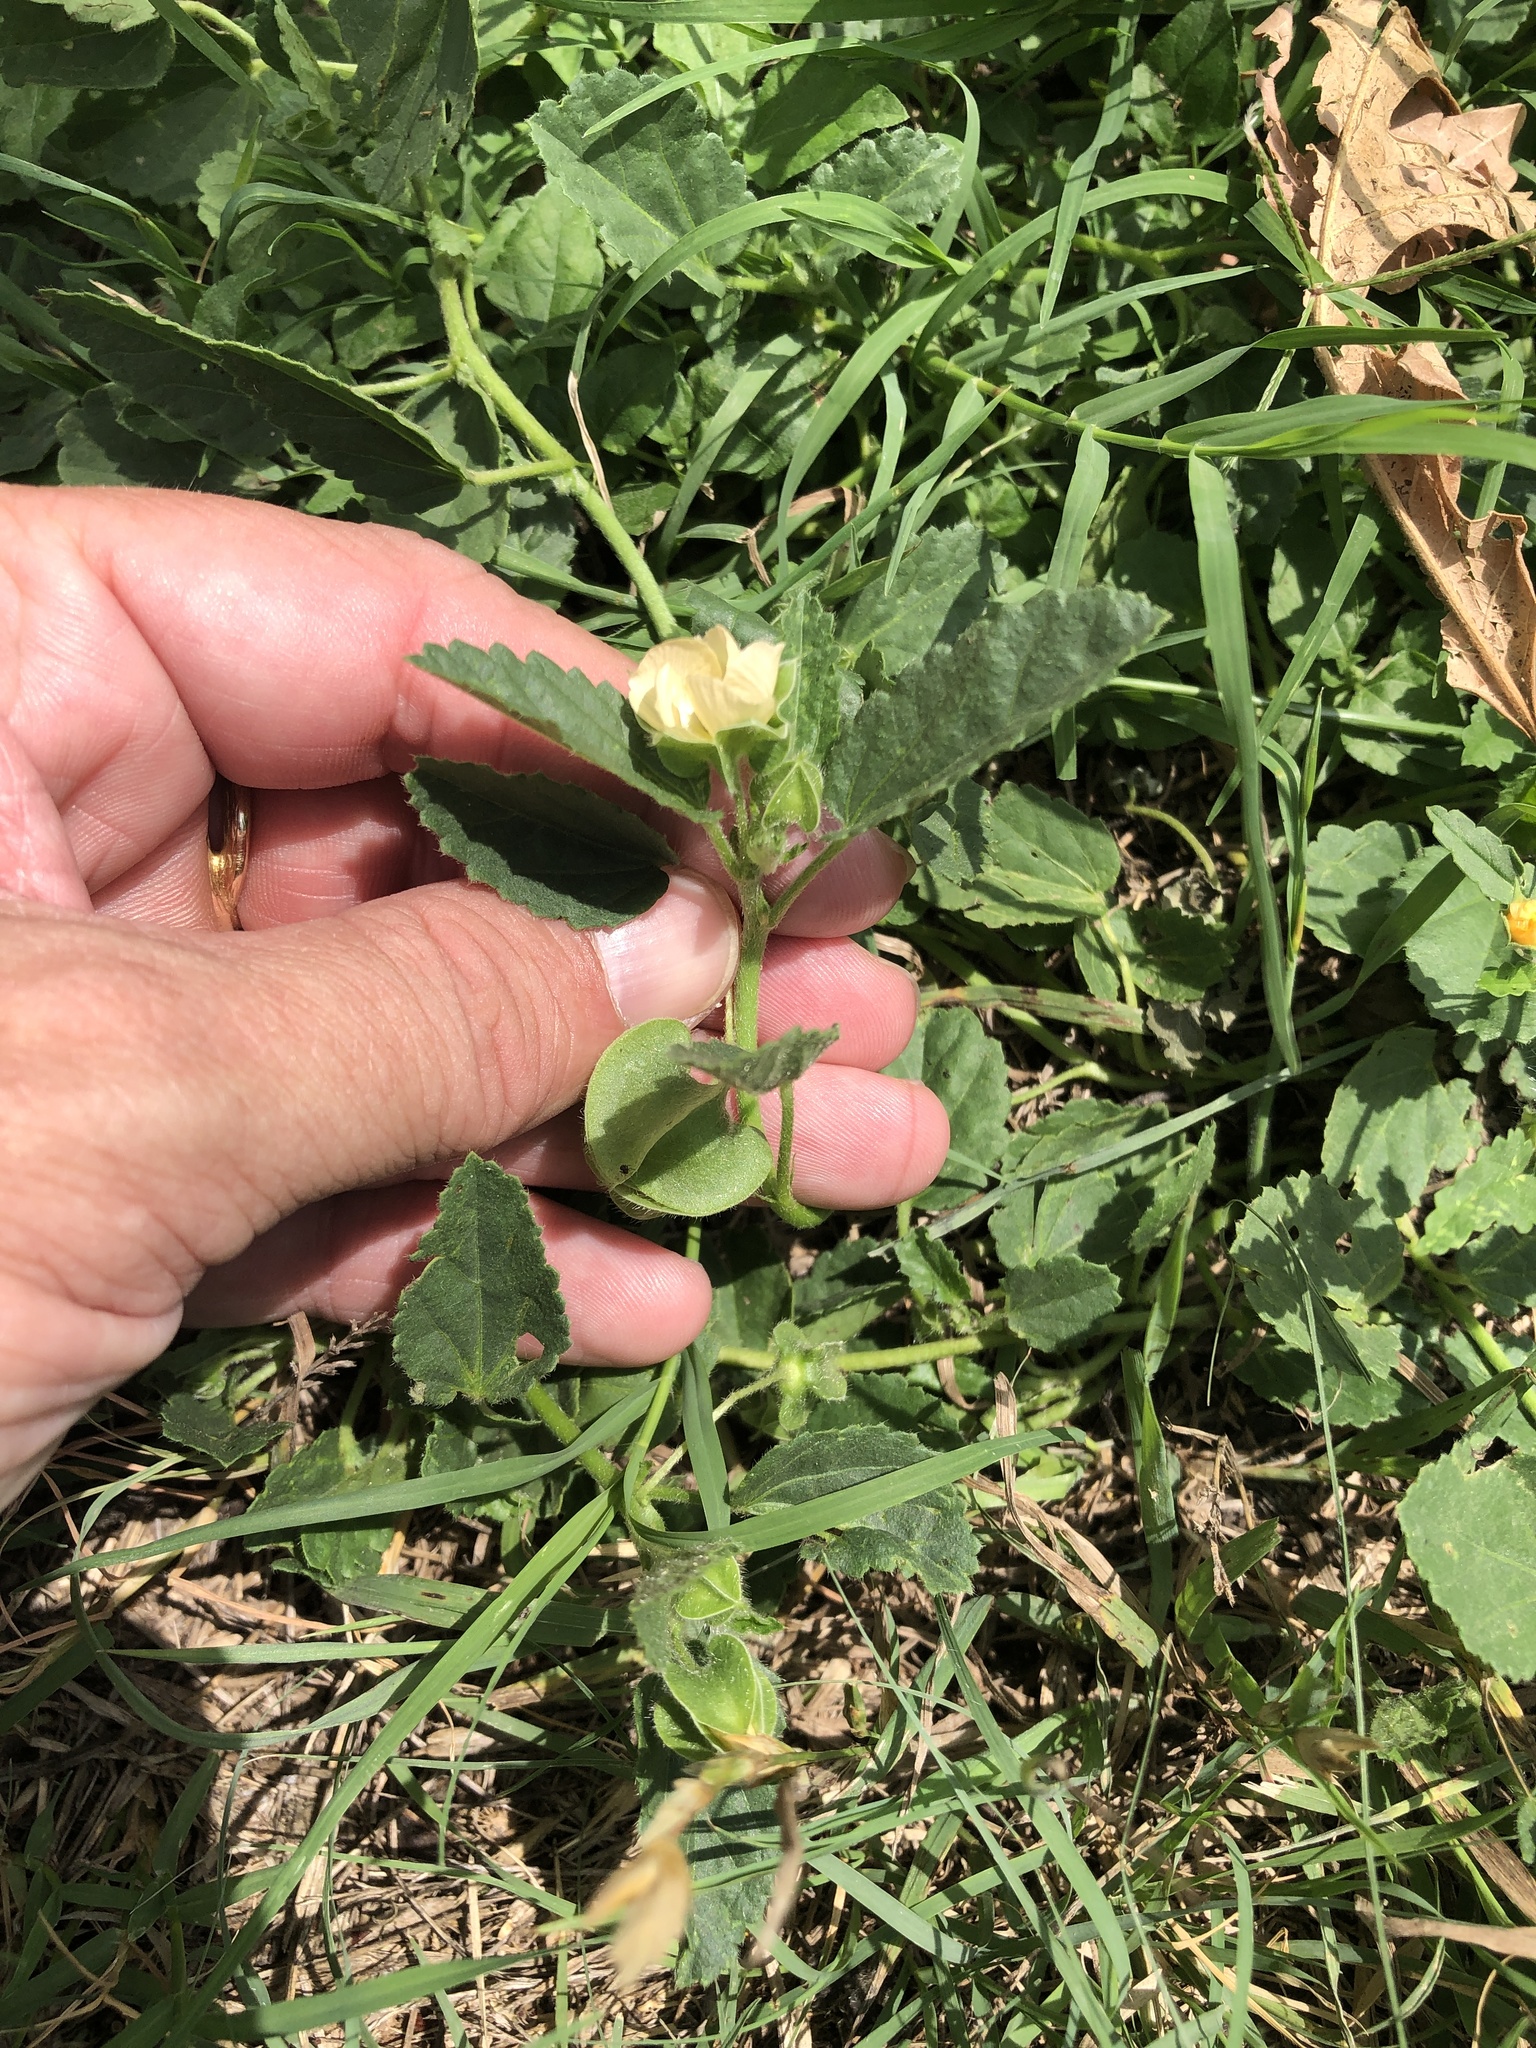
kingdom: Plantae
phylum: Tracheophyta
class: Magnoliopsida
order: Malvales
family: Malvaceae
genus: Rhynchosida
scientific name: Rhynchosida physocalyx
